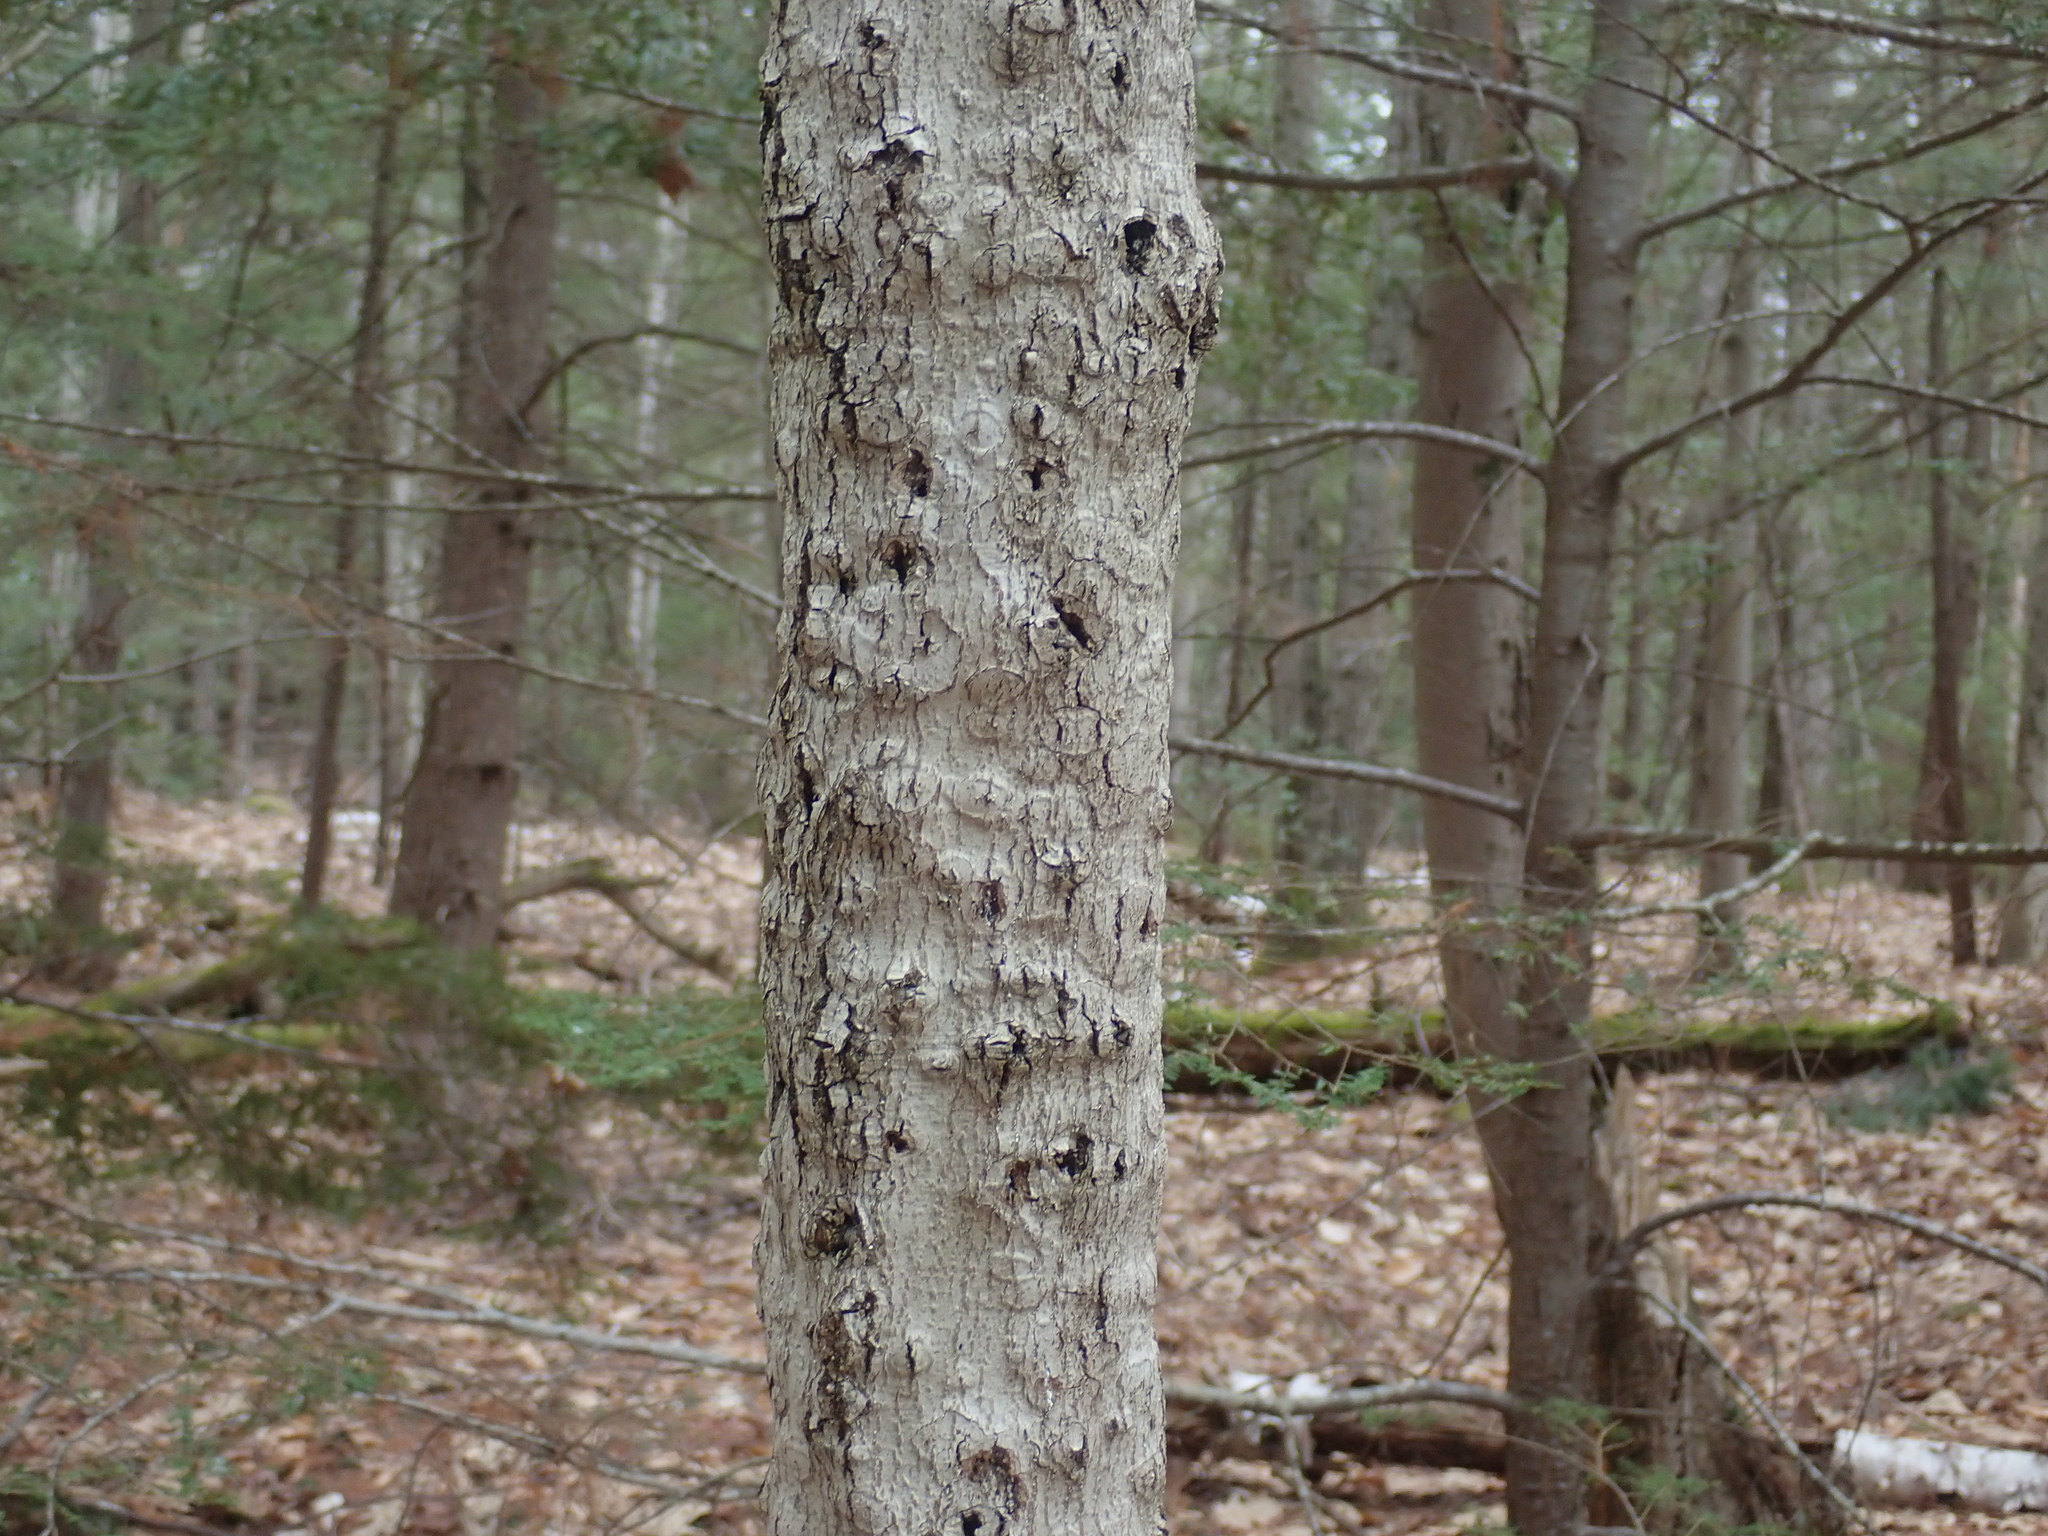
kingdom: Fungi
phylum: Ascomycota
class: Sordariomycetes
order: Hypocreales
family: Nectriaceae
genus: Neonectria
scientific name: Neonectria faginata
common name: Beech bark canker
